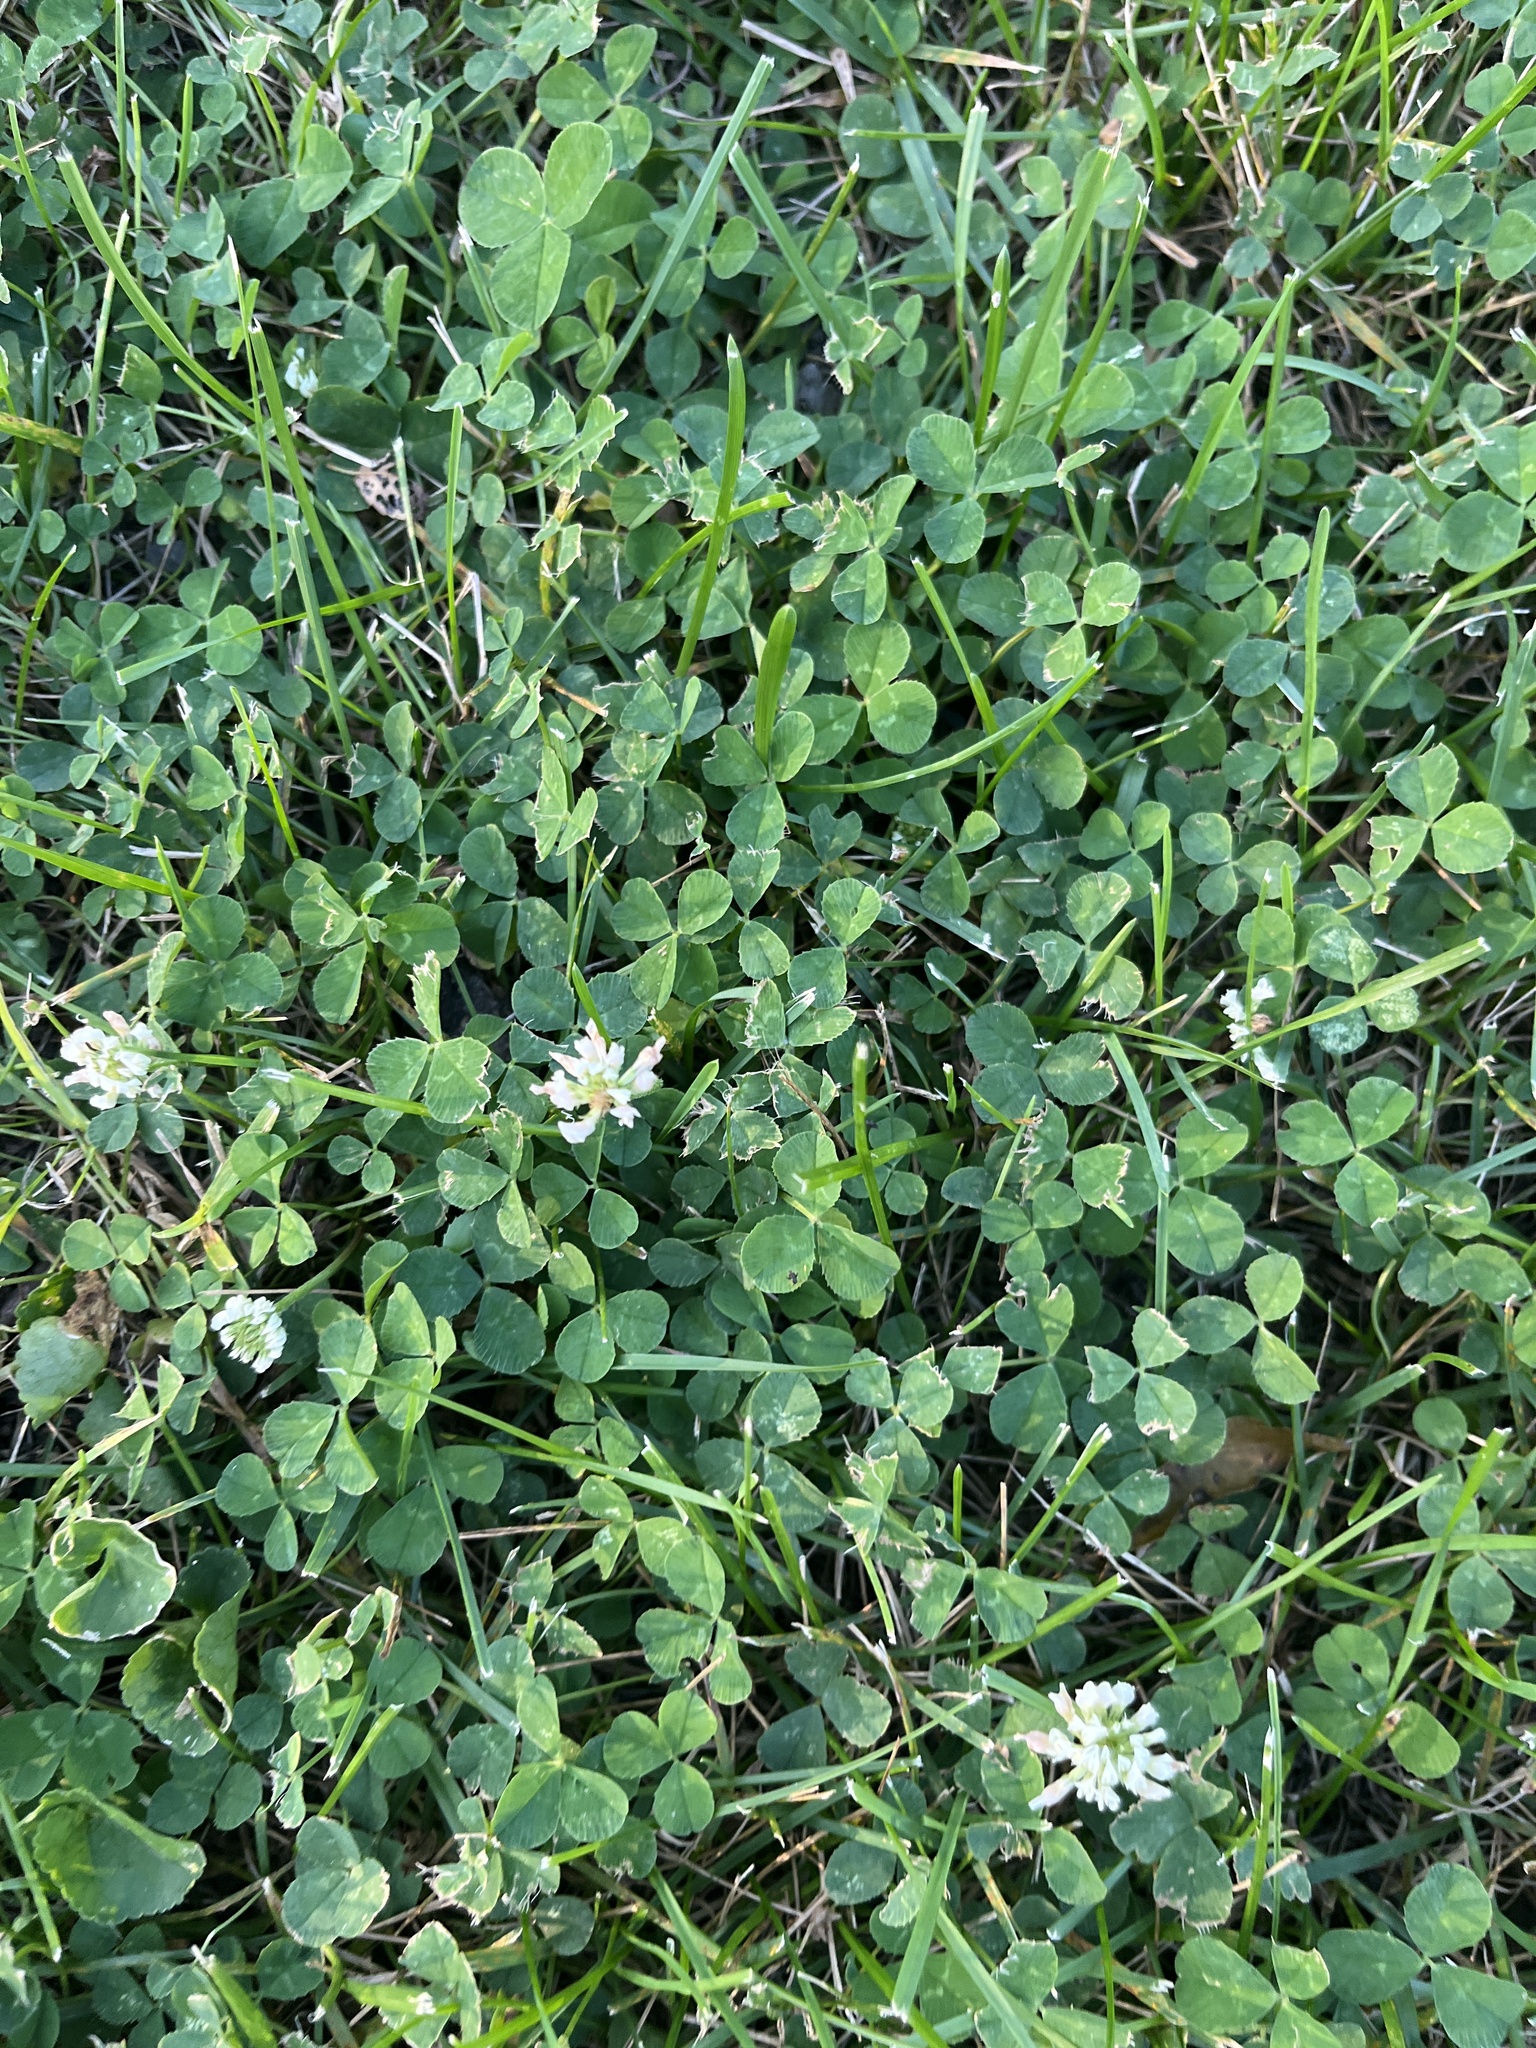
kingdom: Plantae
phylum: Tracheophyta
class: Magnoliopsida
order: Fabales
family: Fabaceae
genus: Trifolium
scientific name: Trifolium repens
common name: White clover
